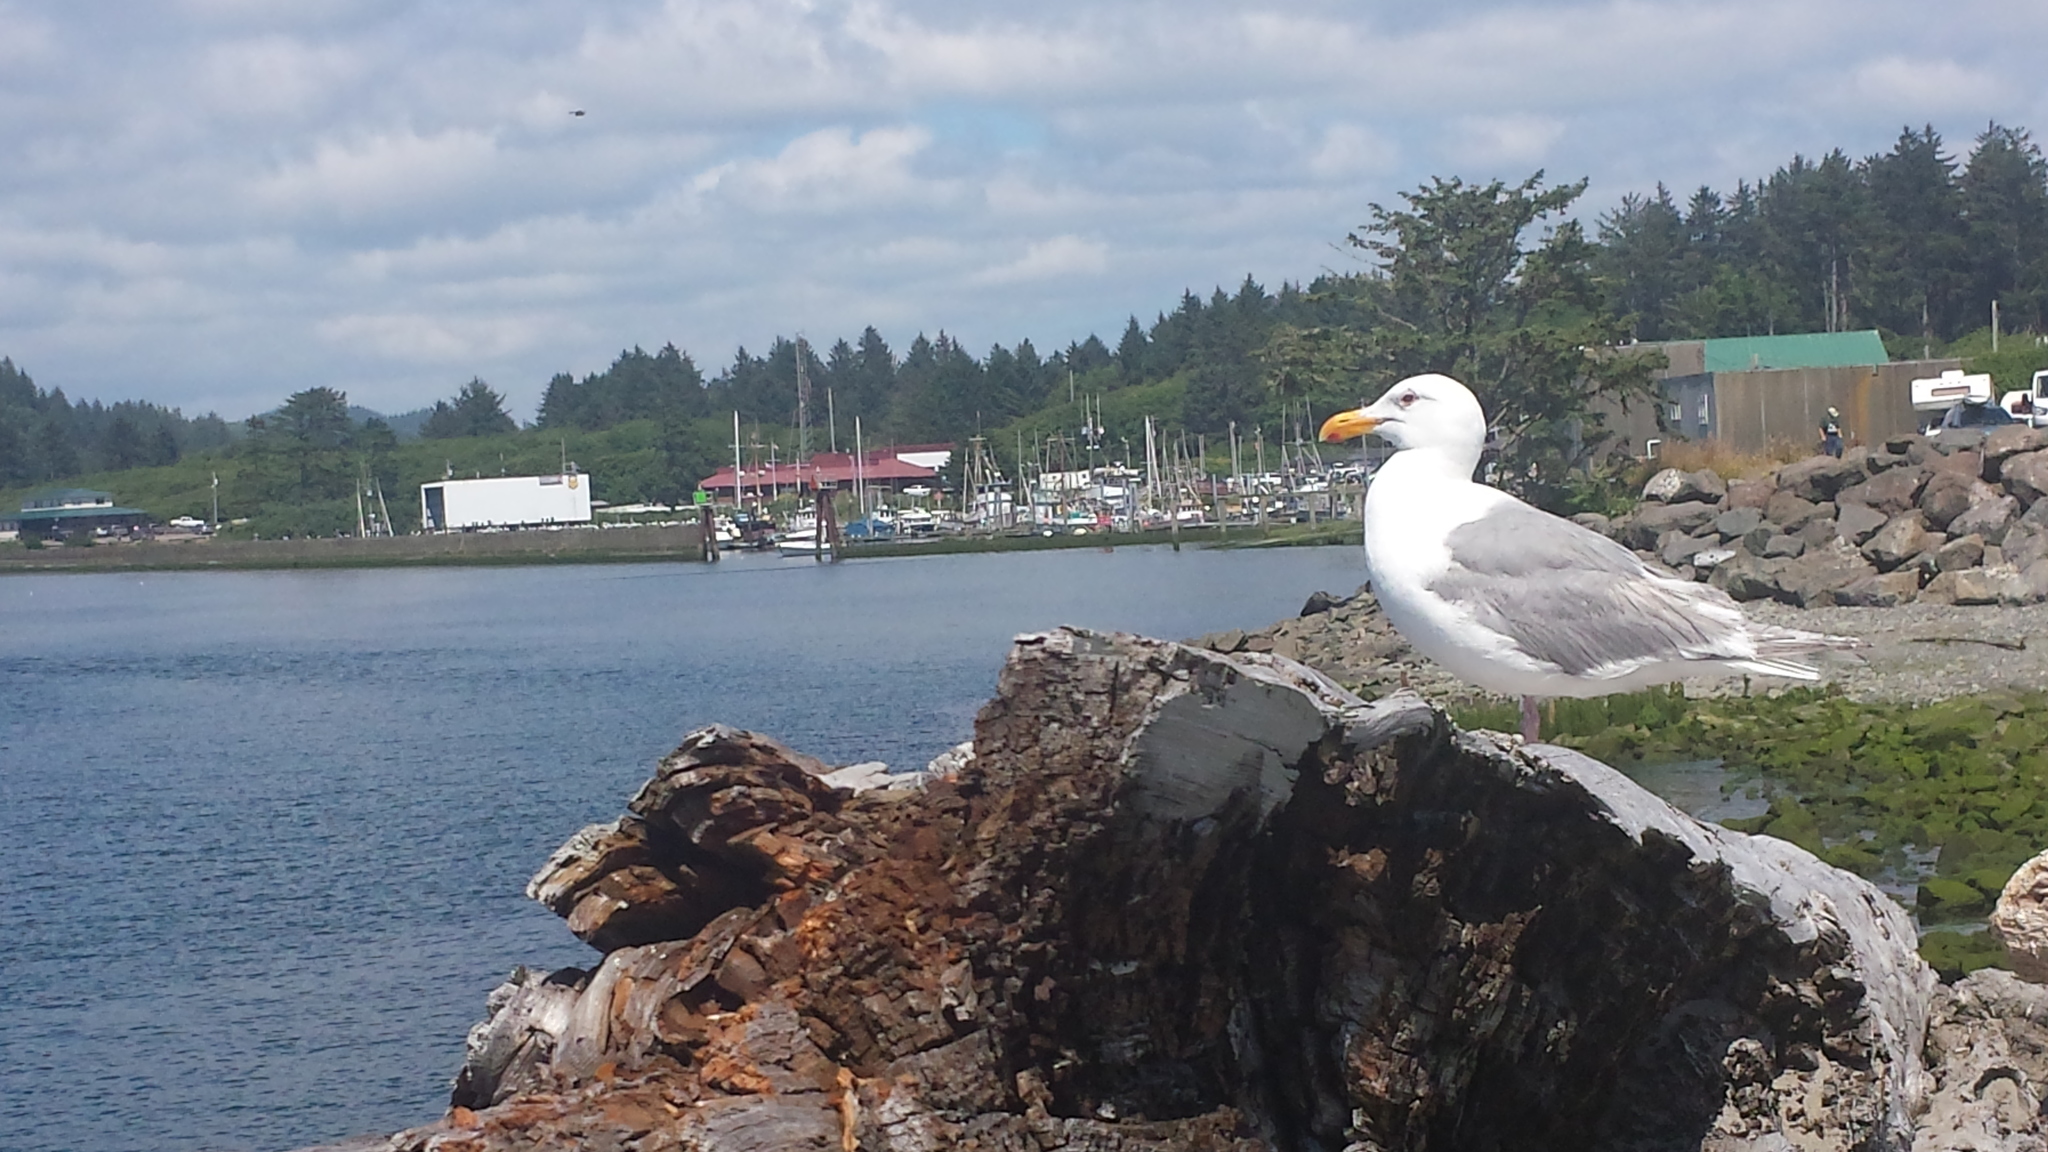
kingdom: Animalia
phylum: Chordata
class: Aves
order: Charadriiformes
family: Laridae
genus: Larus
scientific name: Larus glaucescens
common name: Glaucous-winged gull
